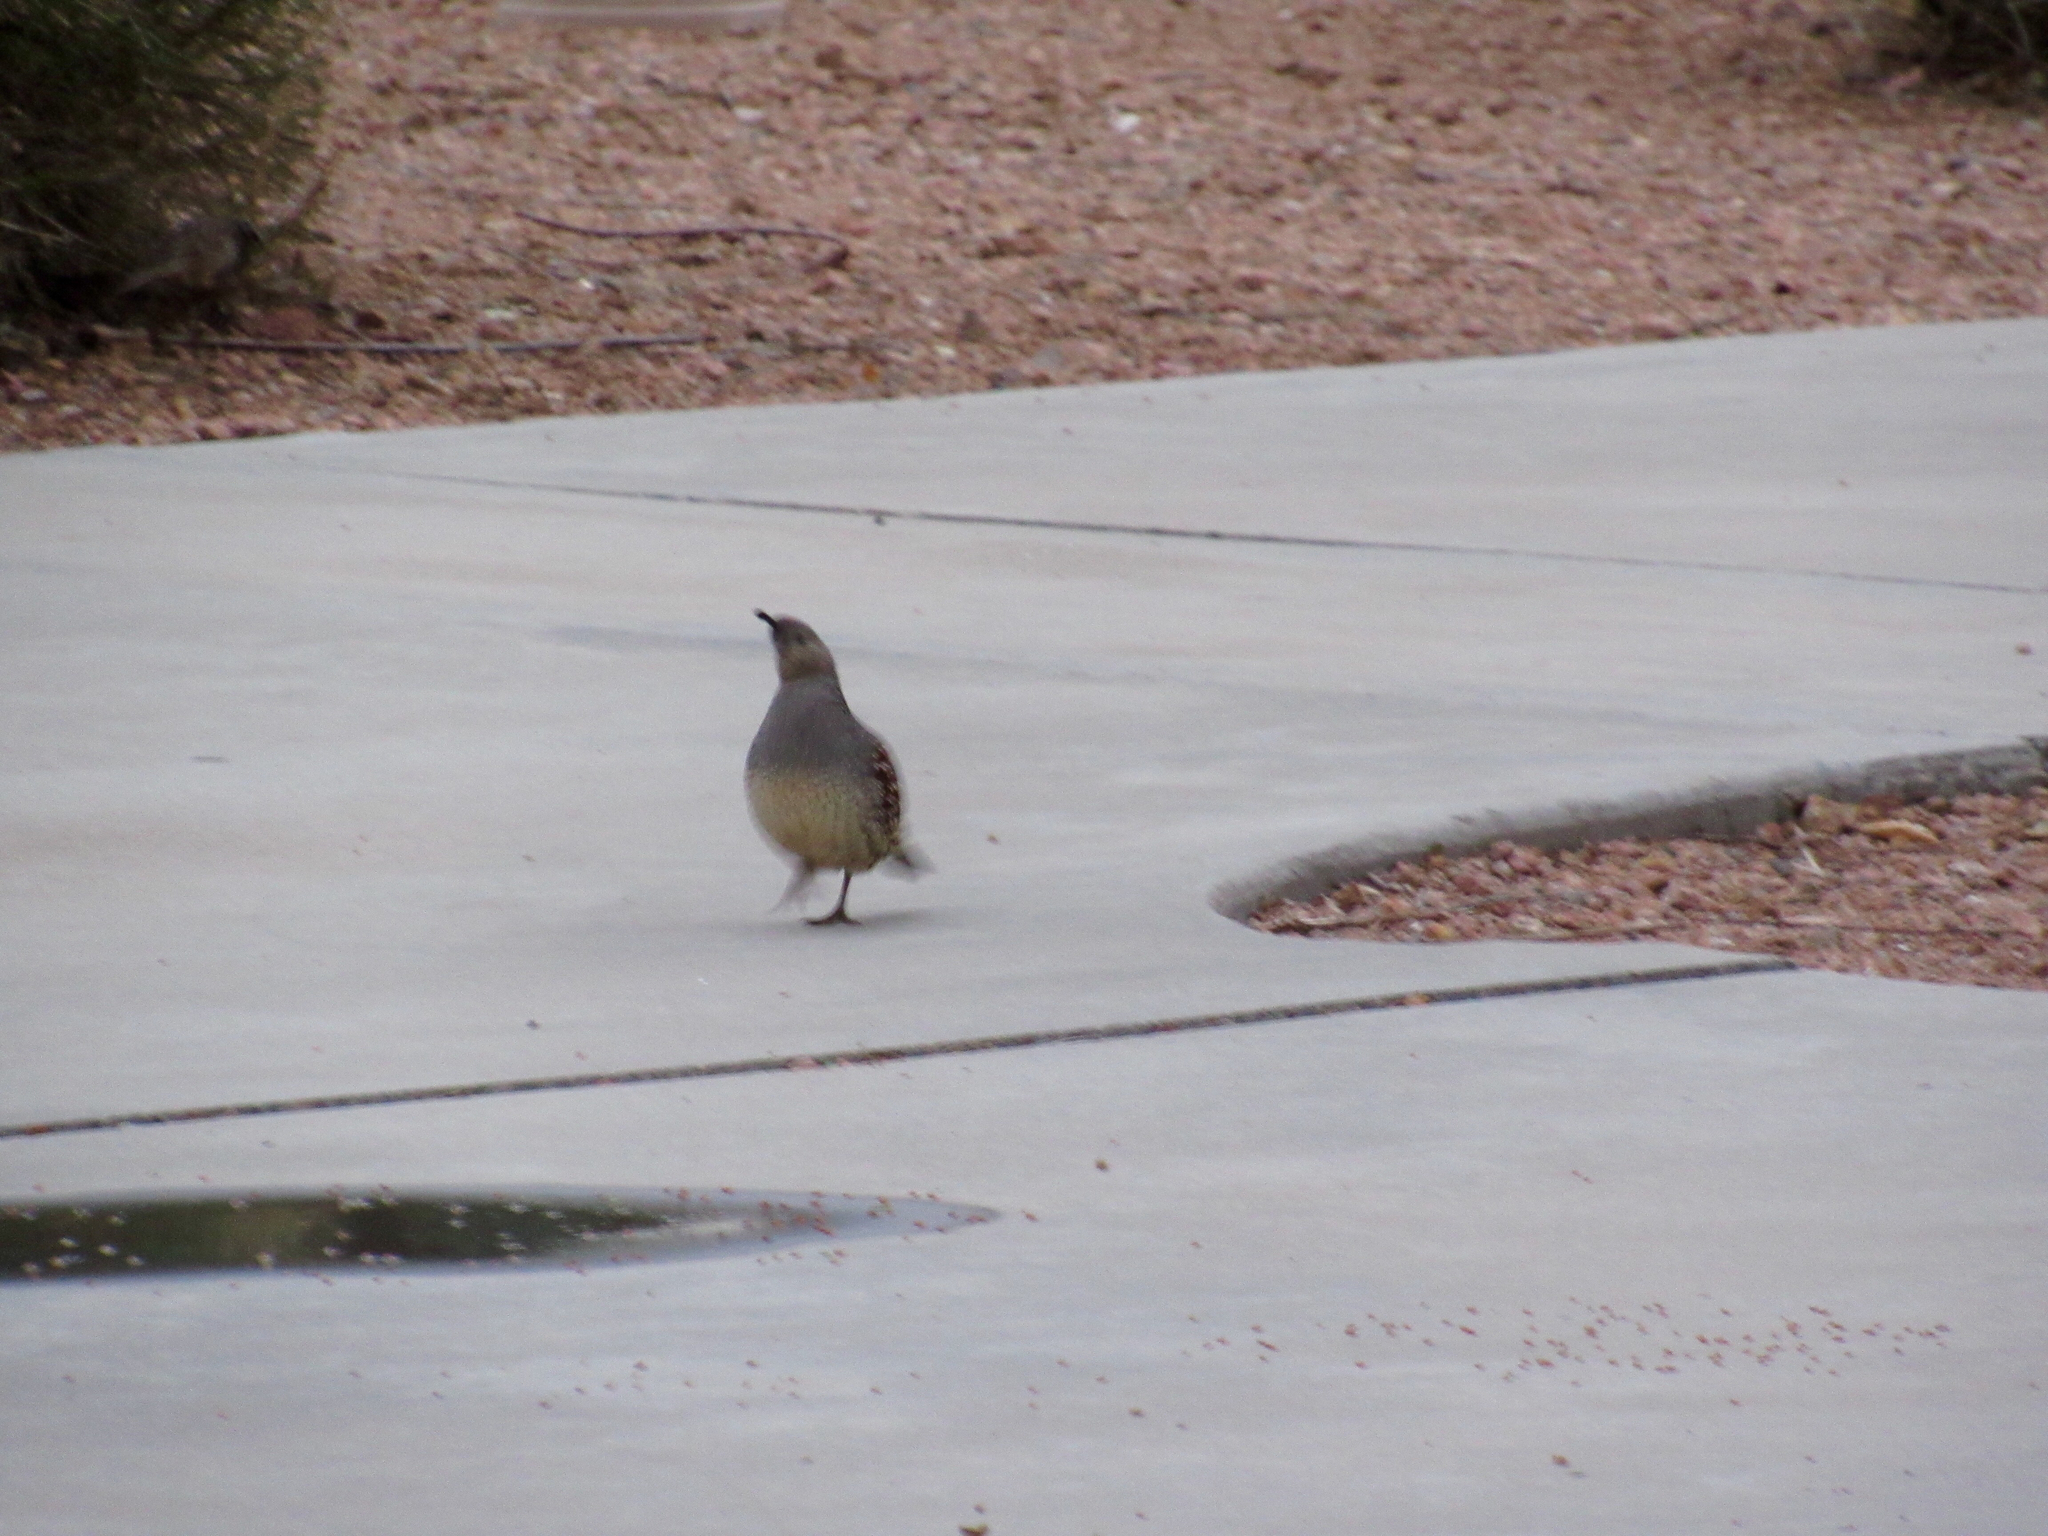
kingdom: Animalia
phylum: Chordata
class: Aves
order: Galliformes
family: Odontophoridae
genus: Callipepla
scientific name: Callipepla gambelii
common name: Gambel's quail
